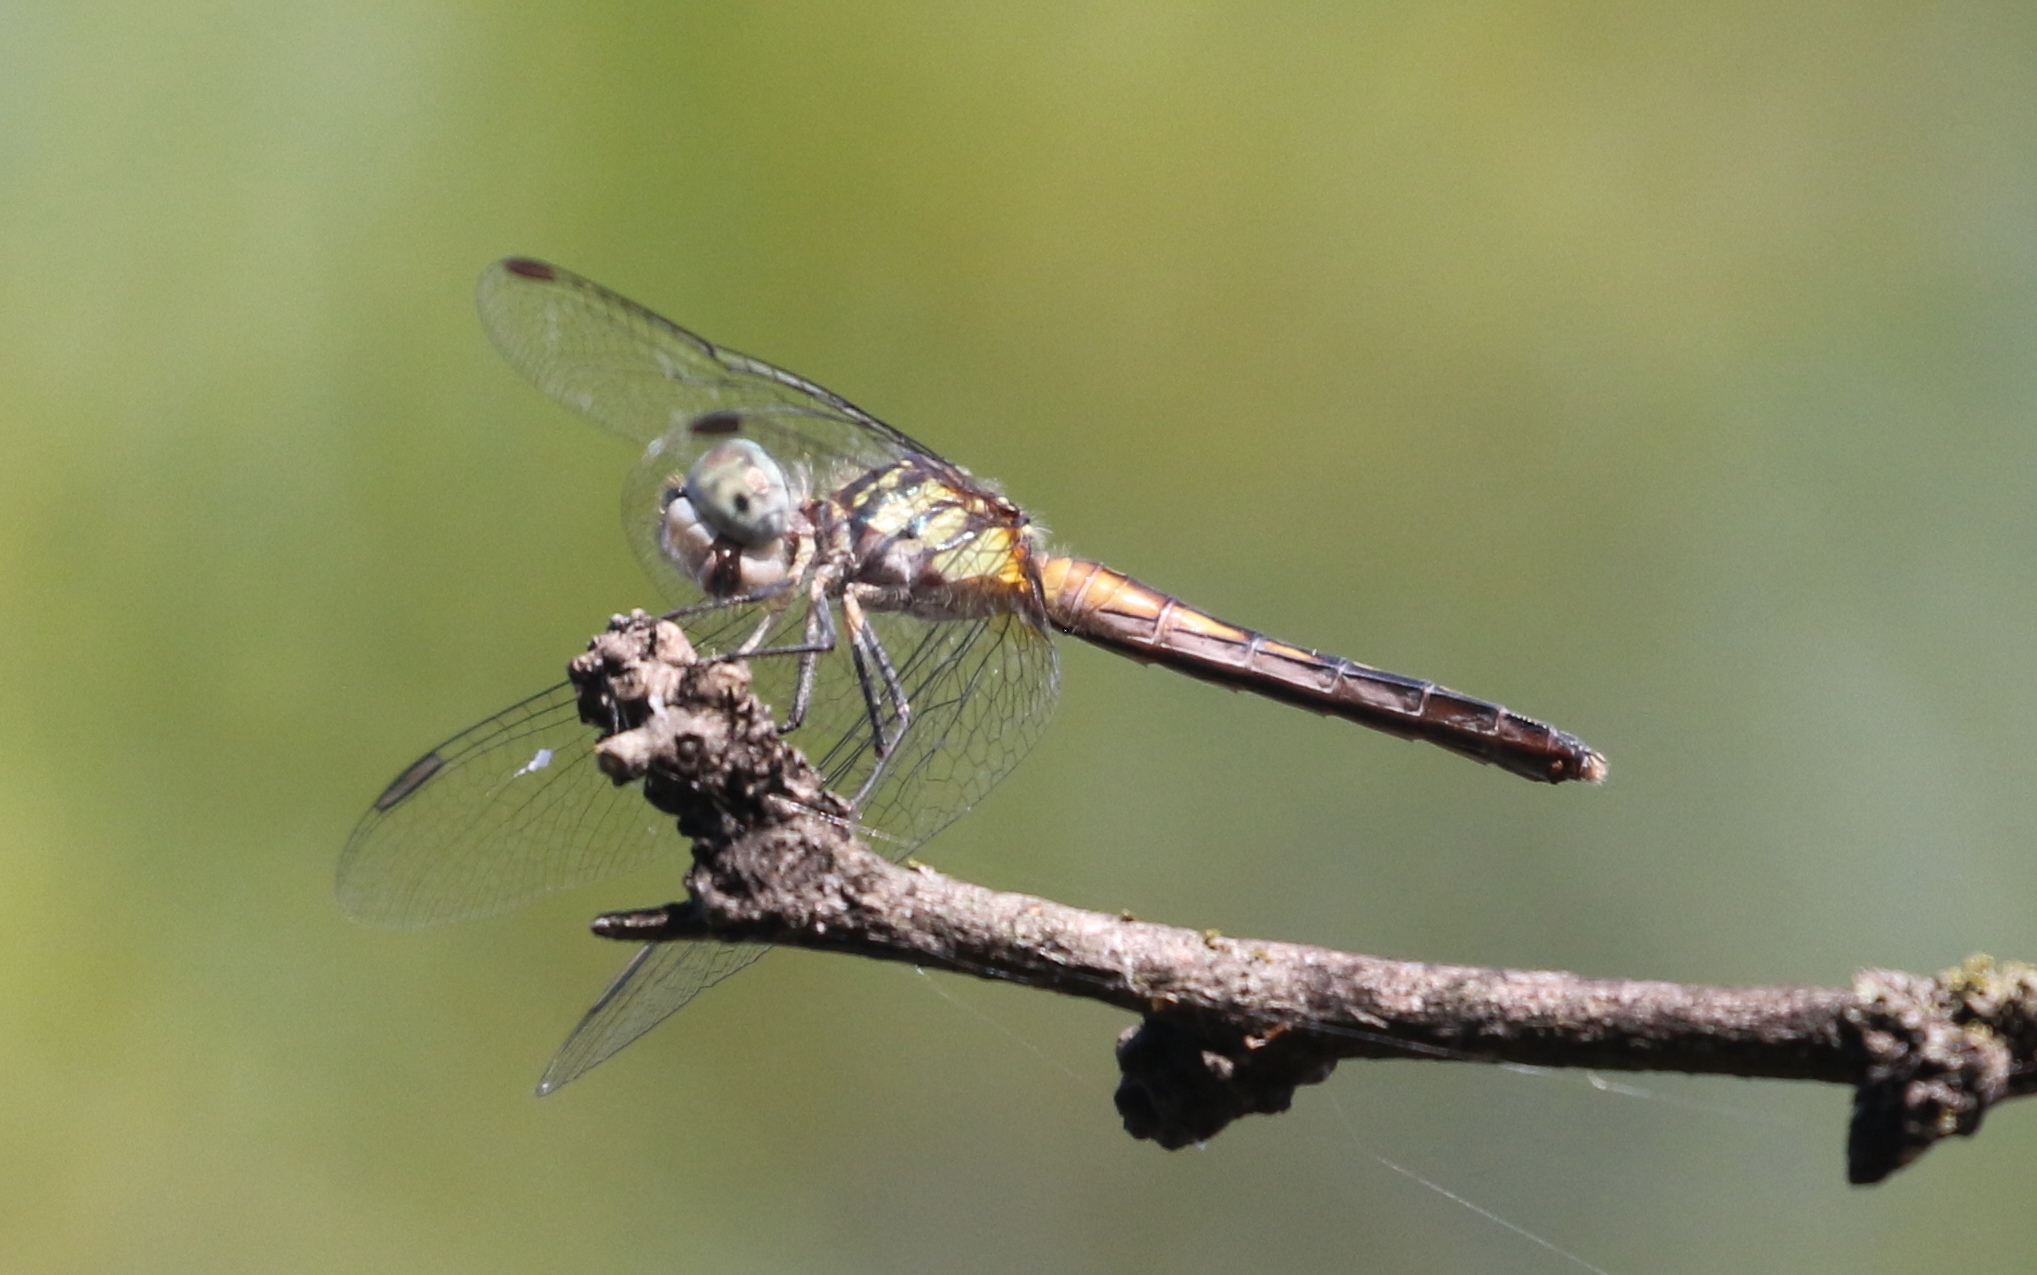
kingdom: Animalia
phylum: Arthropoda
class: Insecta
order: Odonata
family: Libellulidae
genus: Pachydiplax
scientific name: Pachydiplax longipennis
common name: Blue dasher
